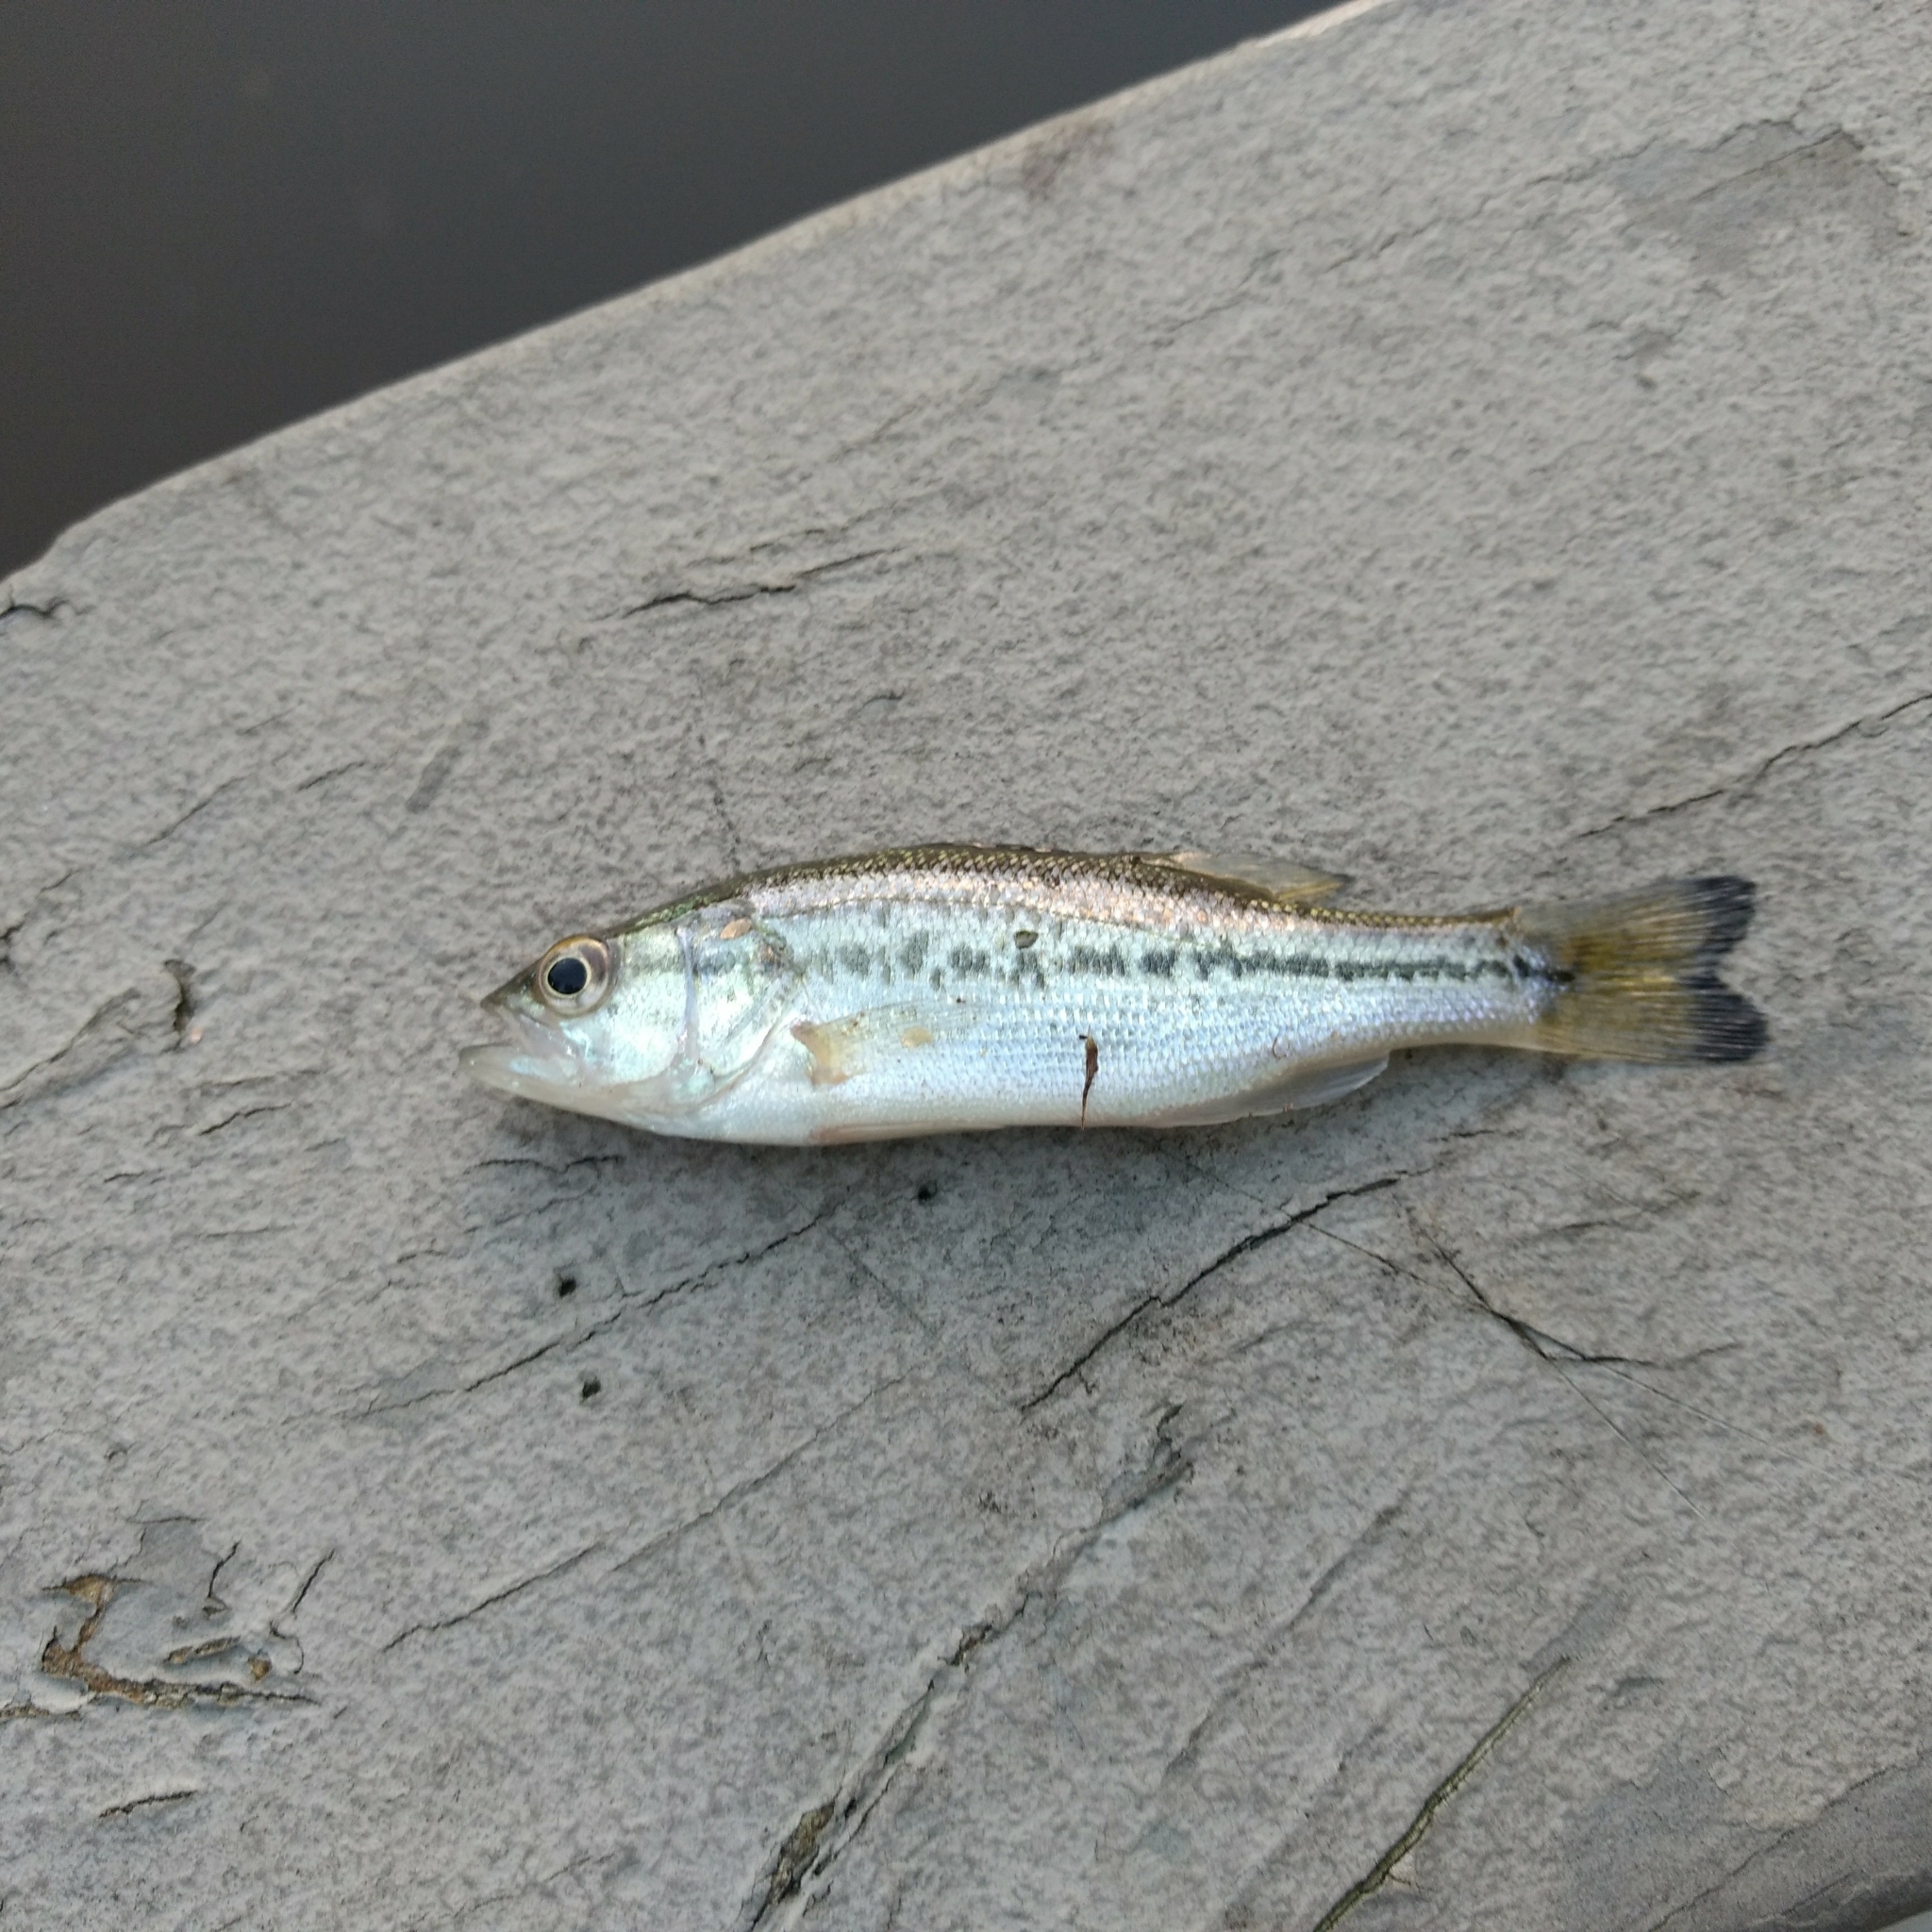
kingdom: Animalia
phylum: Chordata
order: Perciformes
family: Centrarchidae
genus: Micropterus
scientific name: Micropterus
